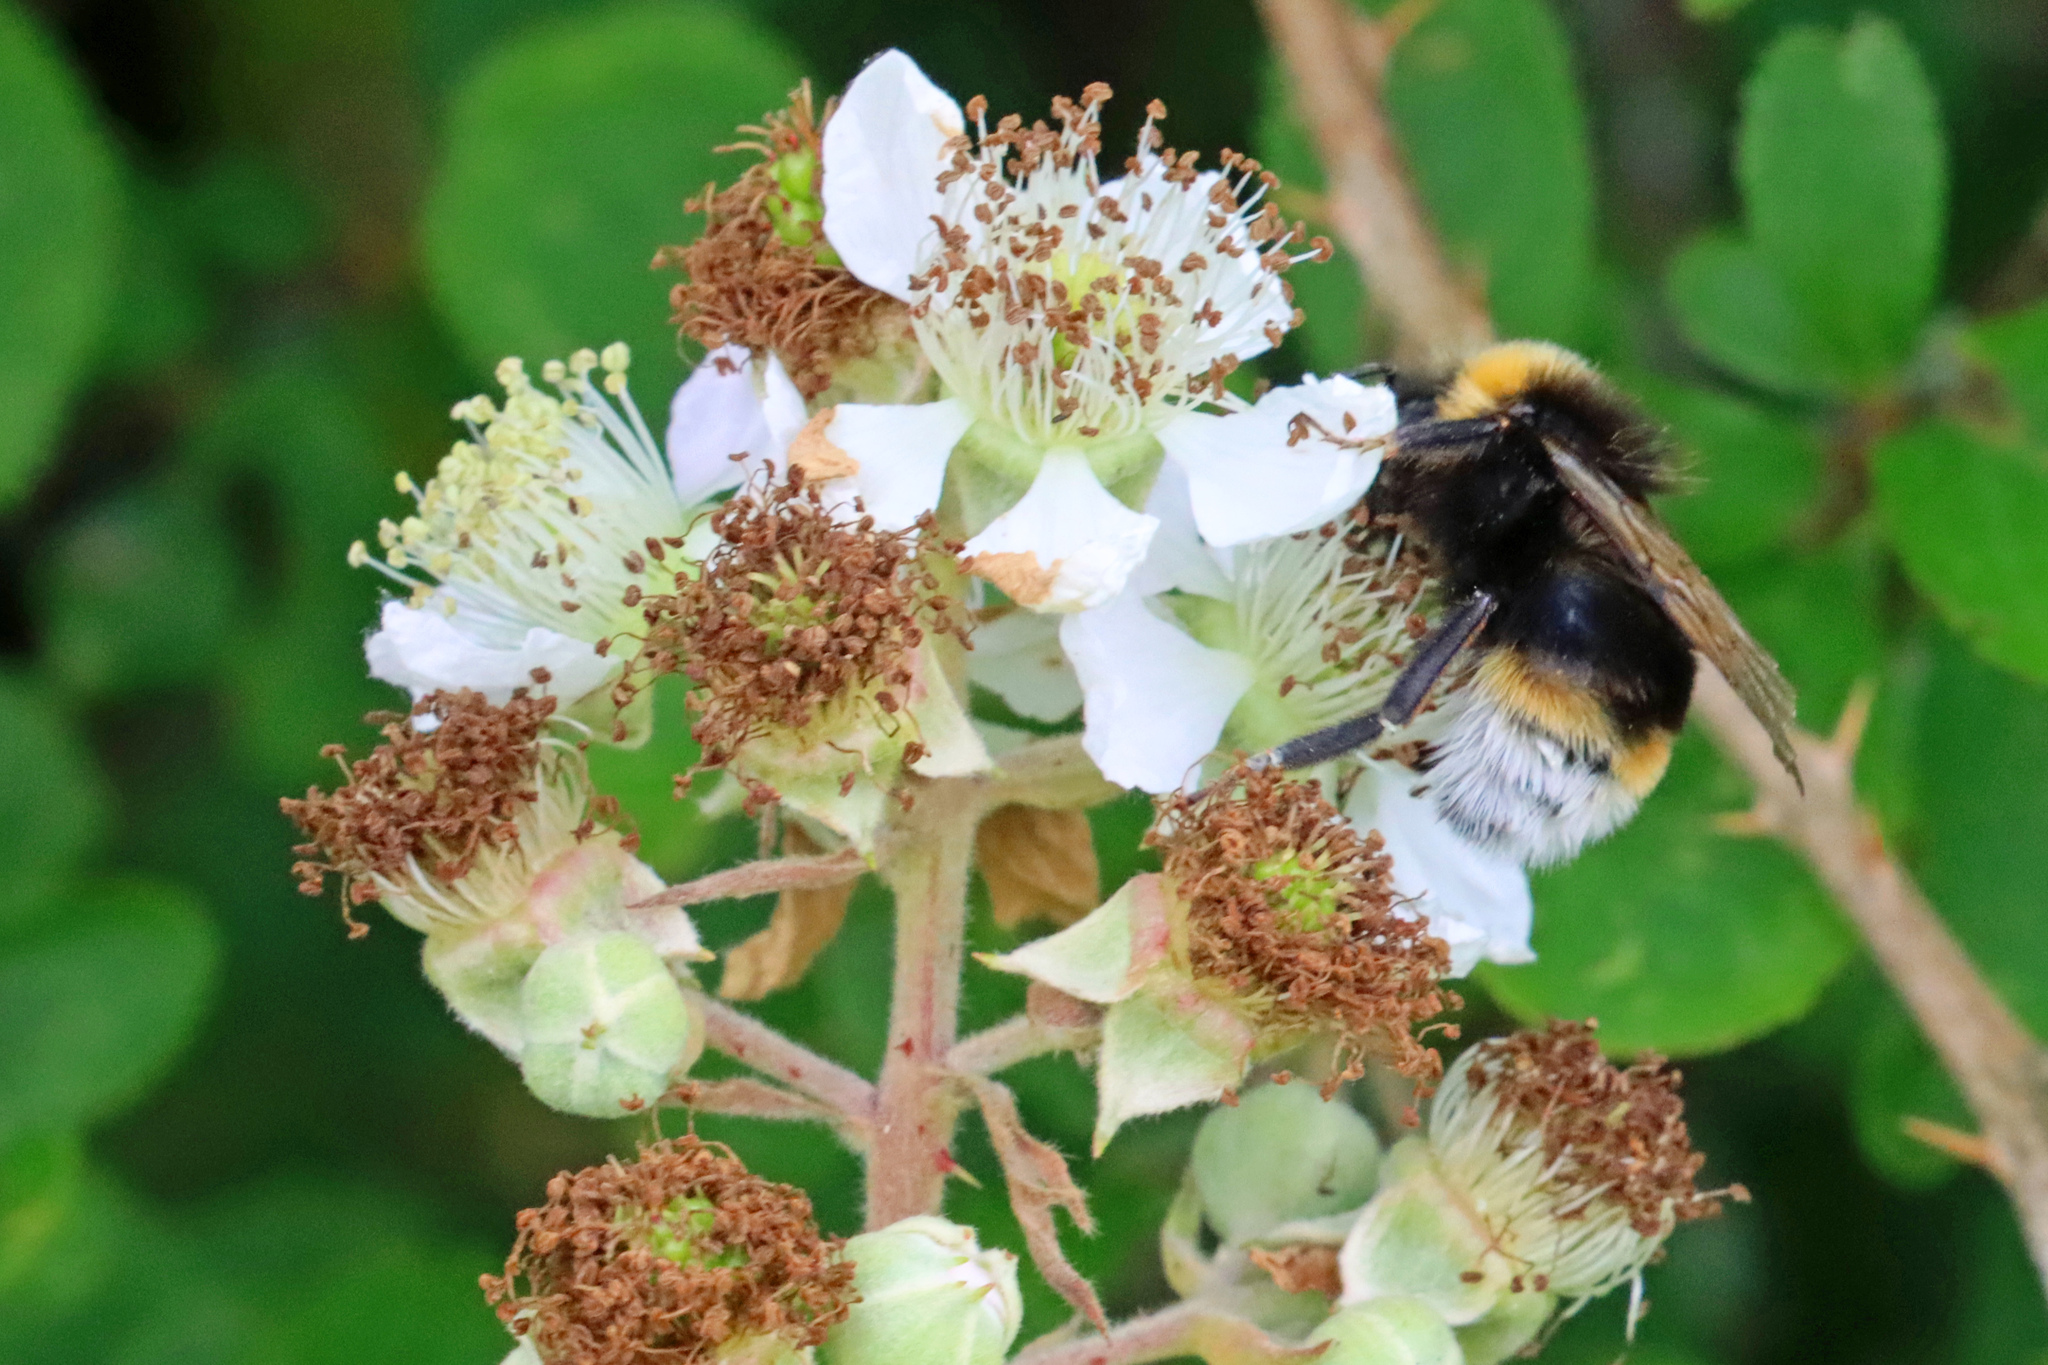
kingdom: Animalia
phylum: Arthropoda
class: Insecta
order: Hymenoptera
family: Apidae
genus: Bombus
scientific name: Bombus vestalis
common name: Vestal cuckoo bee
